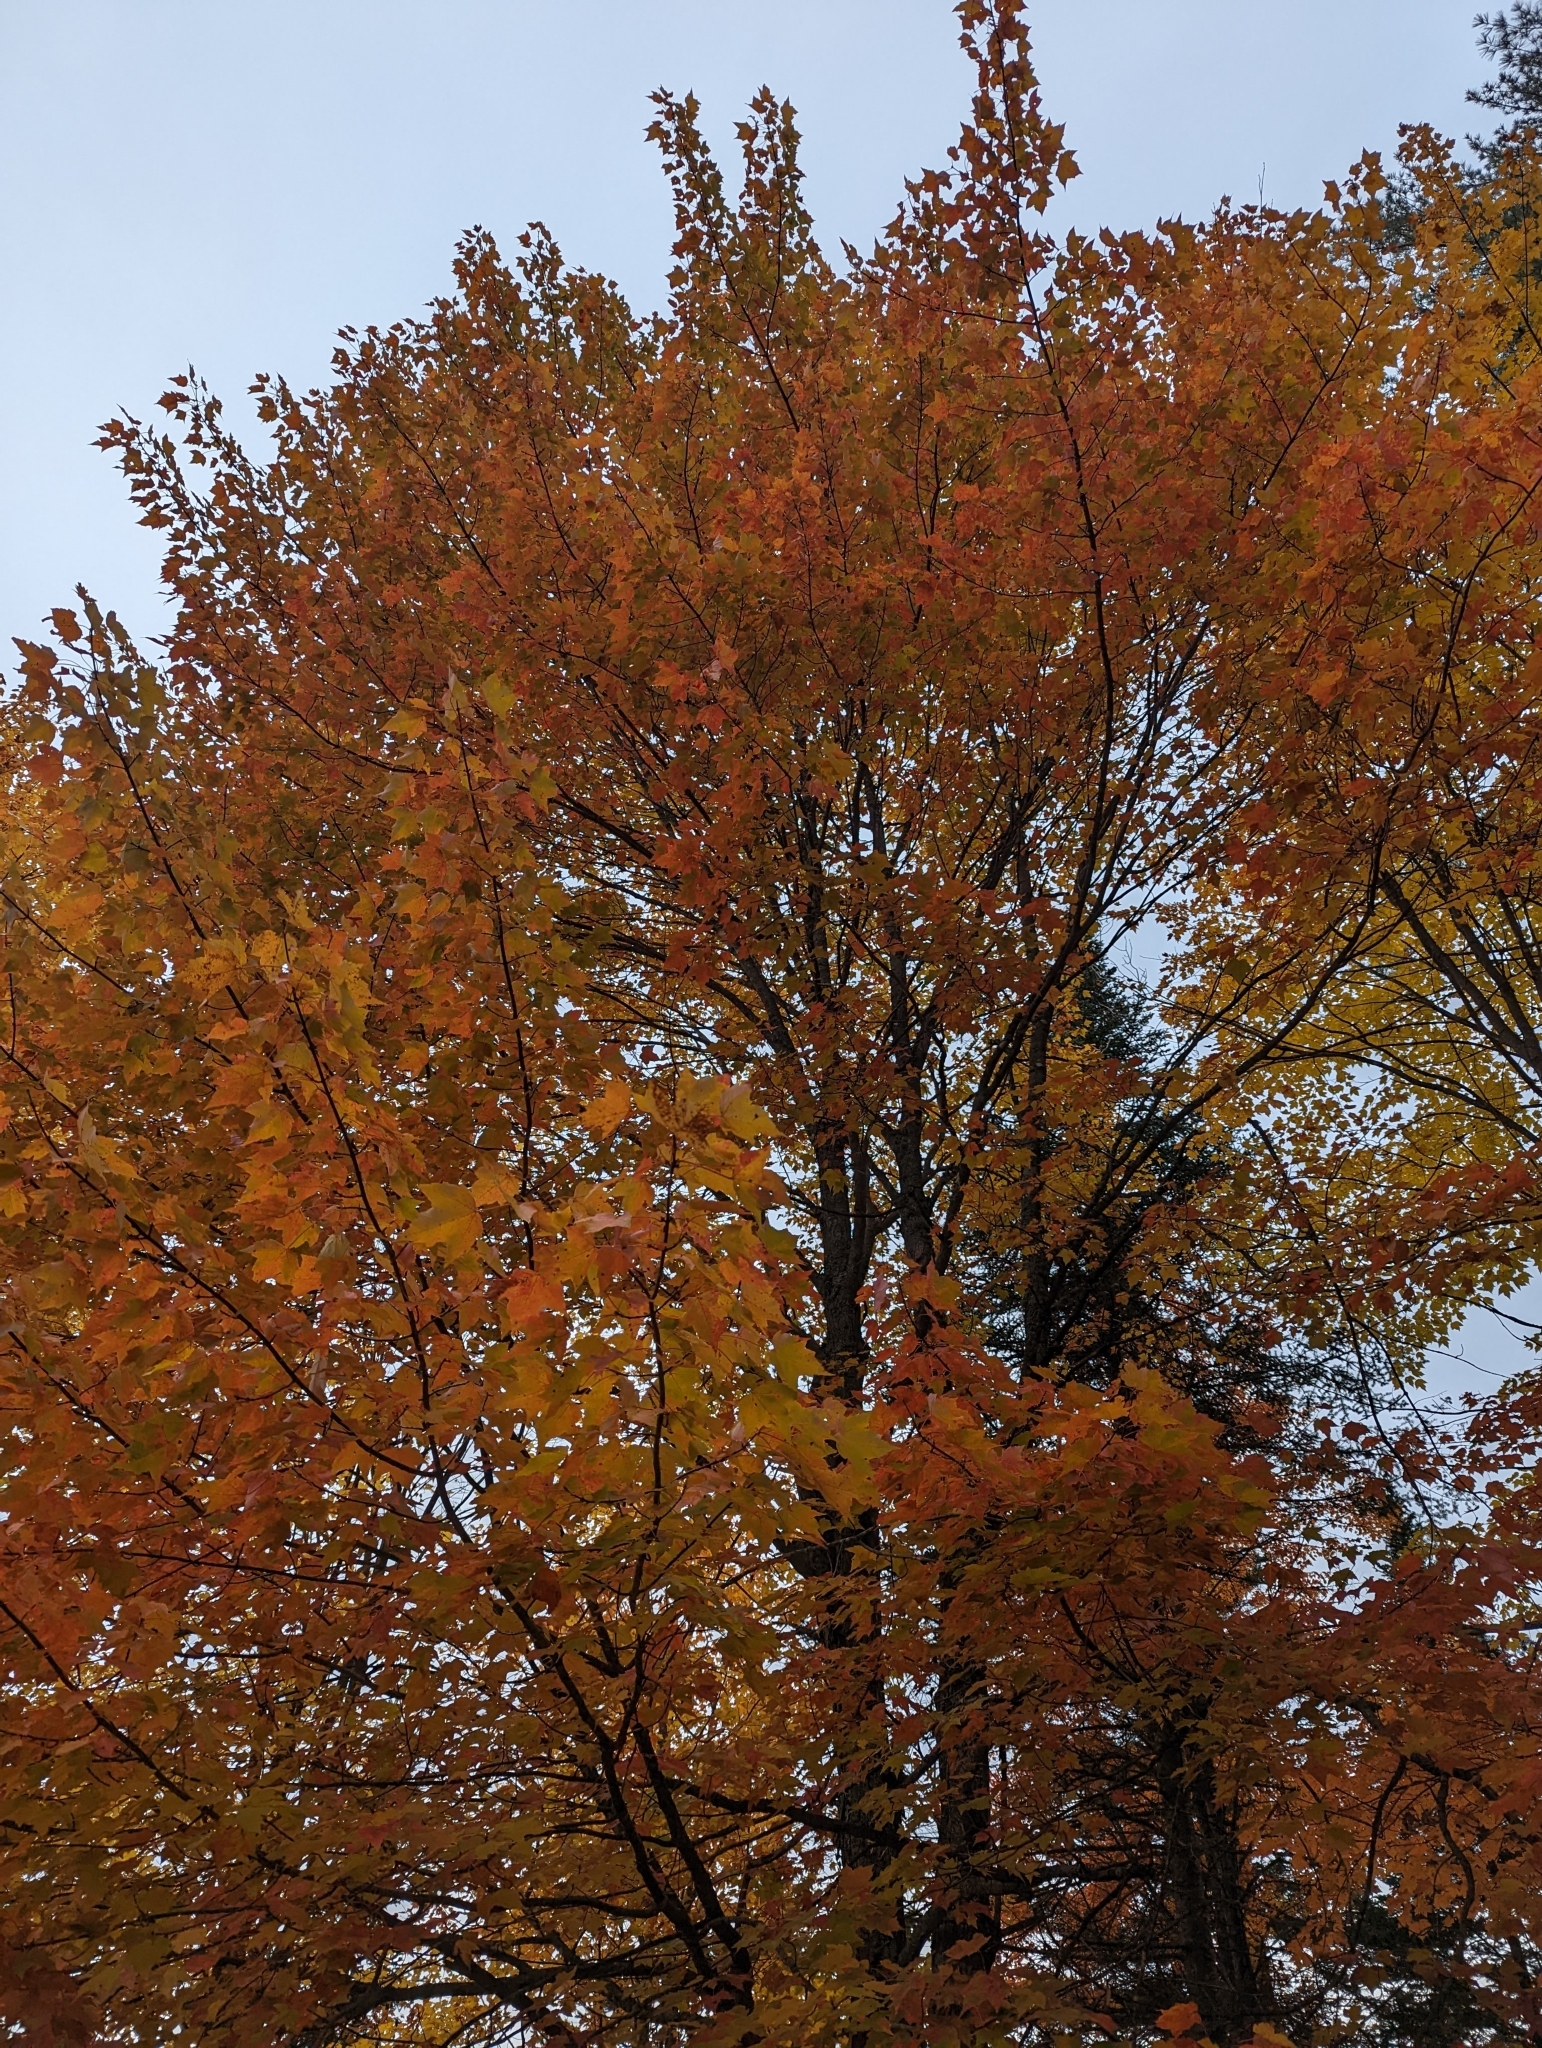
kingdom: Plantae
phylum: Tracheophyta
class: Magnoliopsida
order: Sapindales
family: Sapindaceae
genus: Acer
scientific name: Acer rubrum
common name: Red maple
